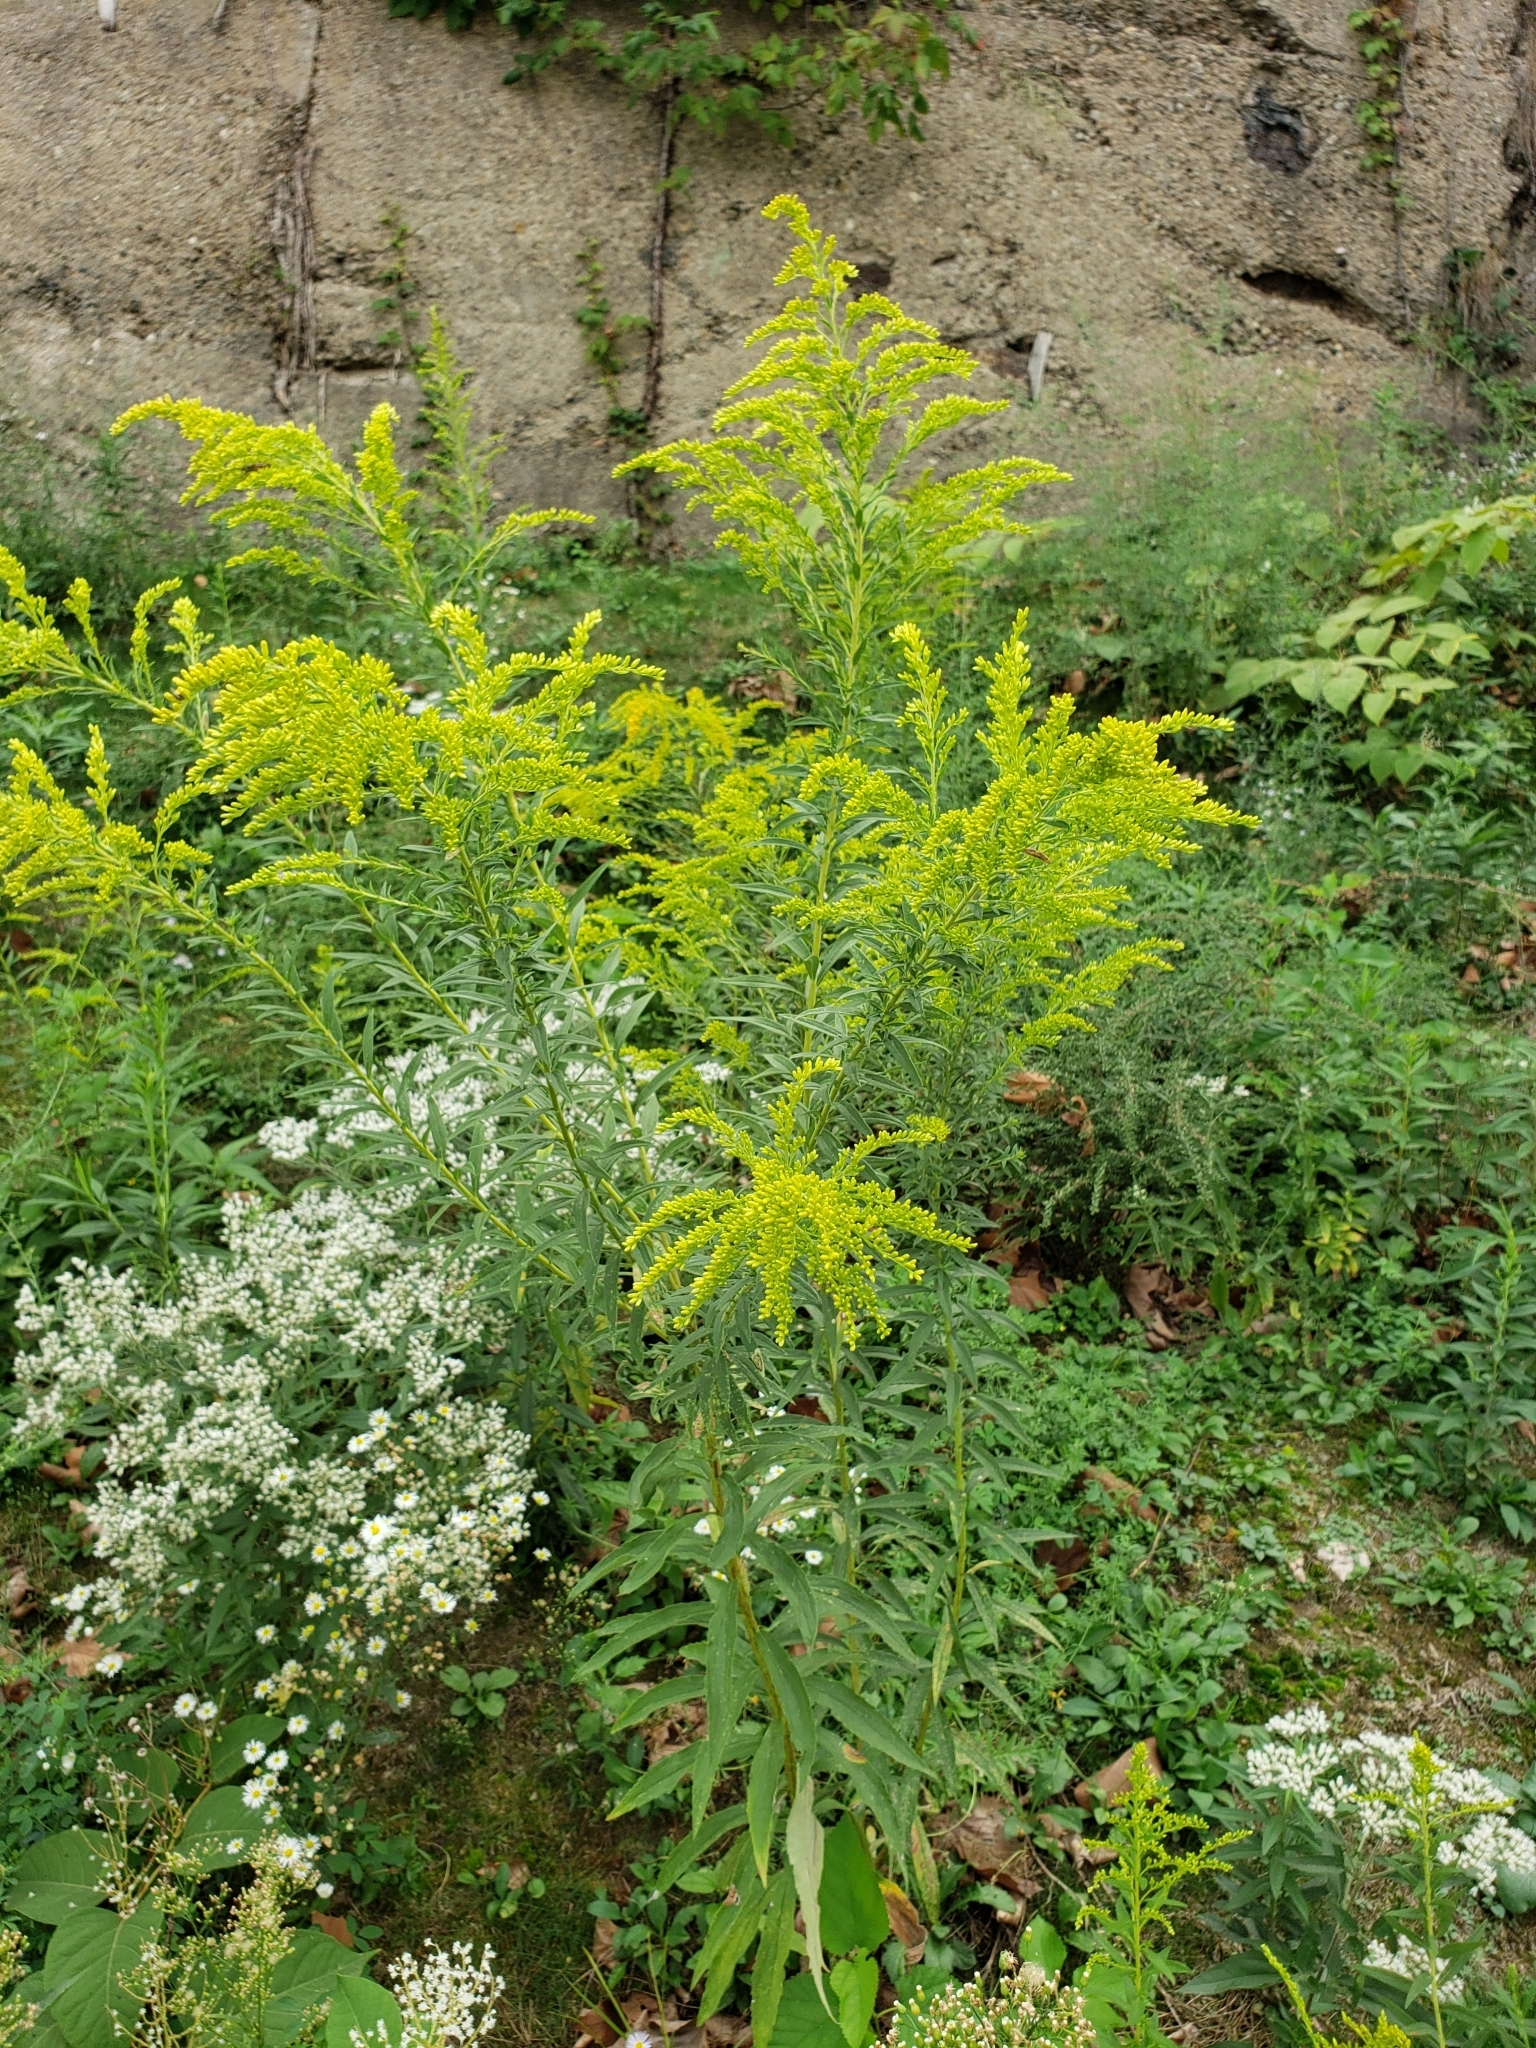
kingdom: Plantae
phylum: Tracheophyta
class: Magnoliopsida
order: Asterales
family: Asteraceae
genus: Solidago
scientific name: Solidago altissima
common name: Late goldenrod
